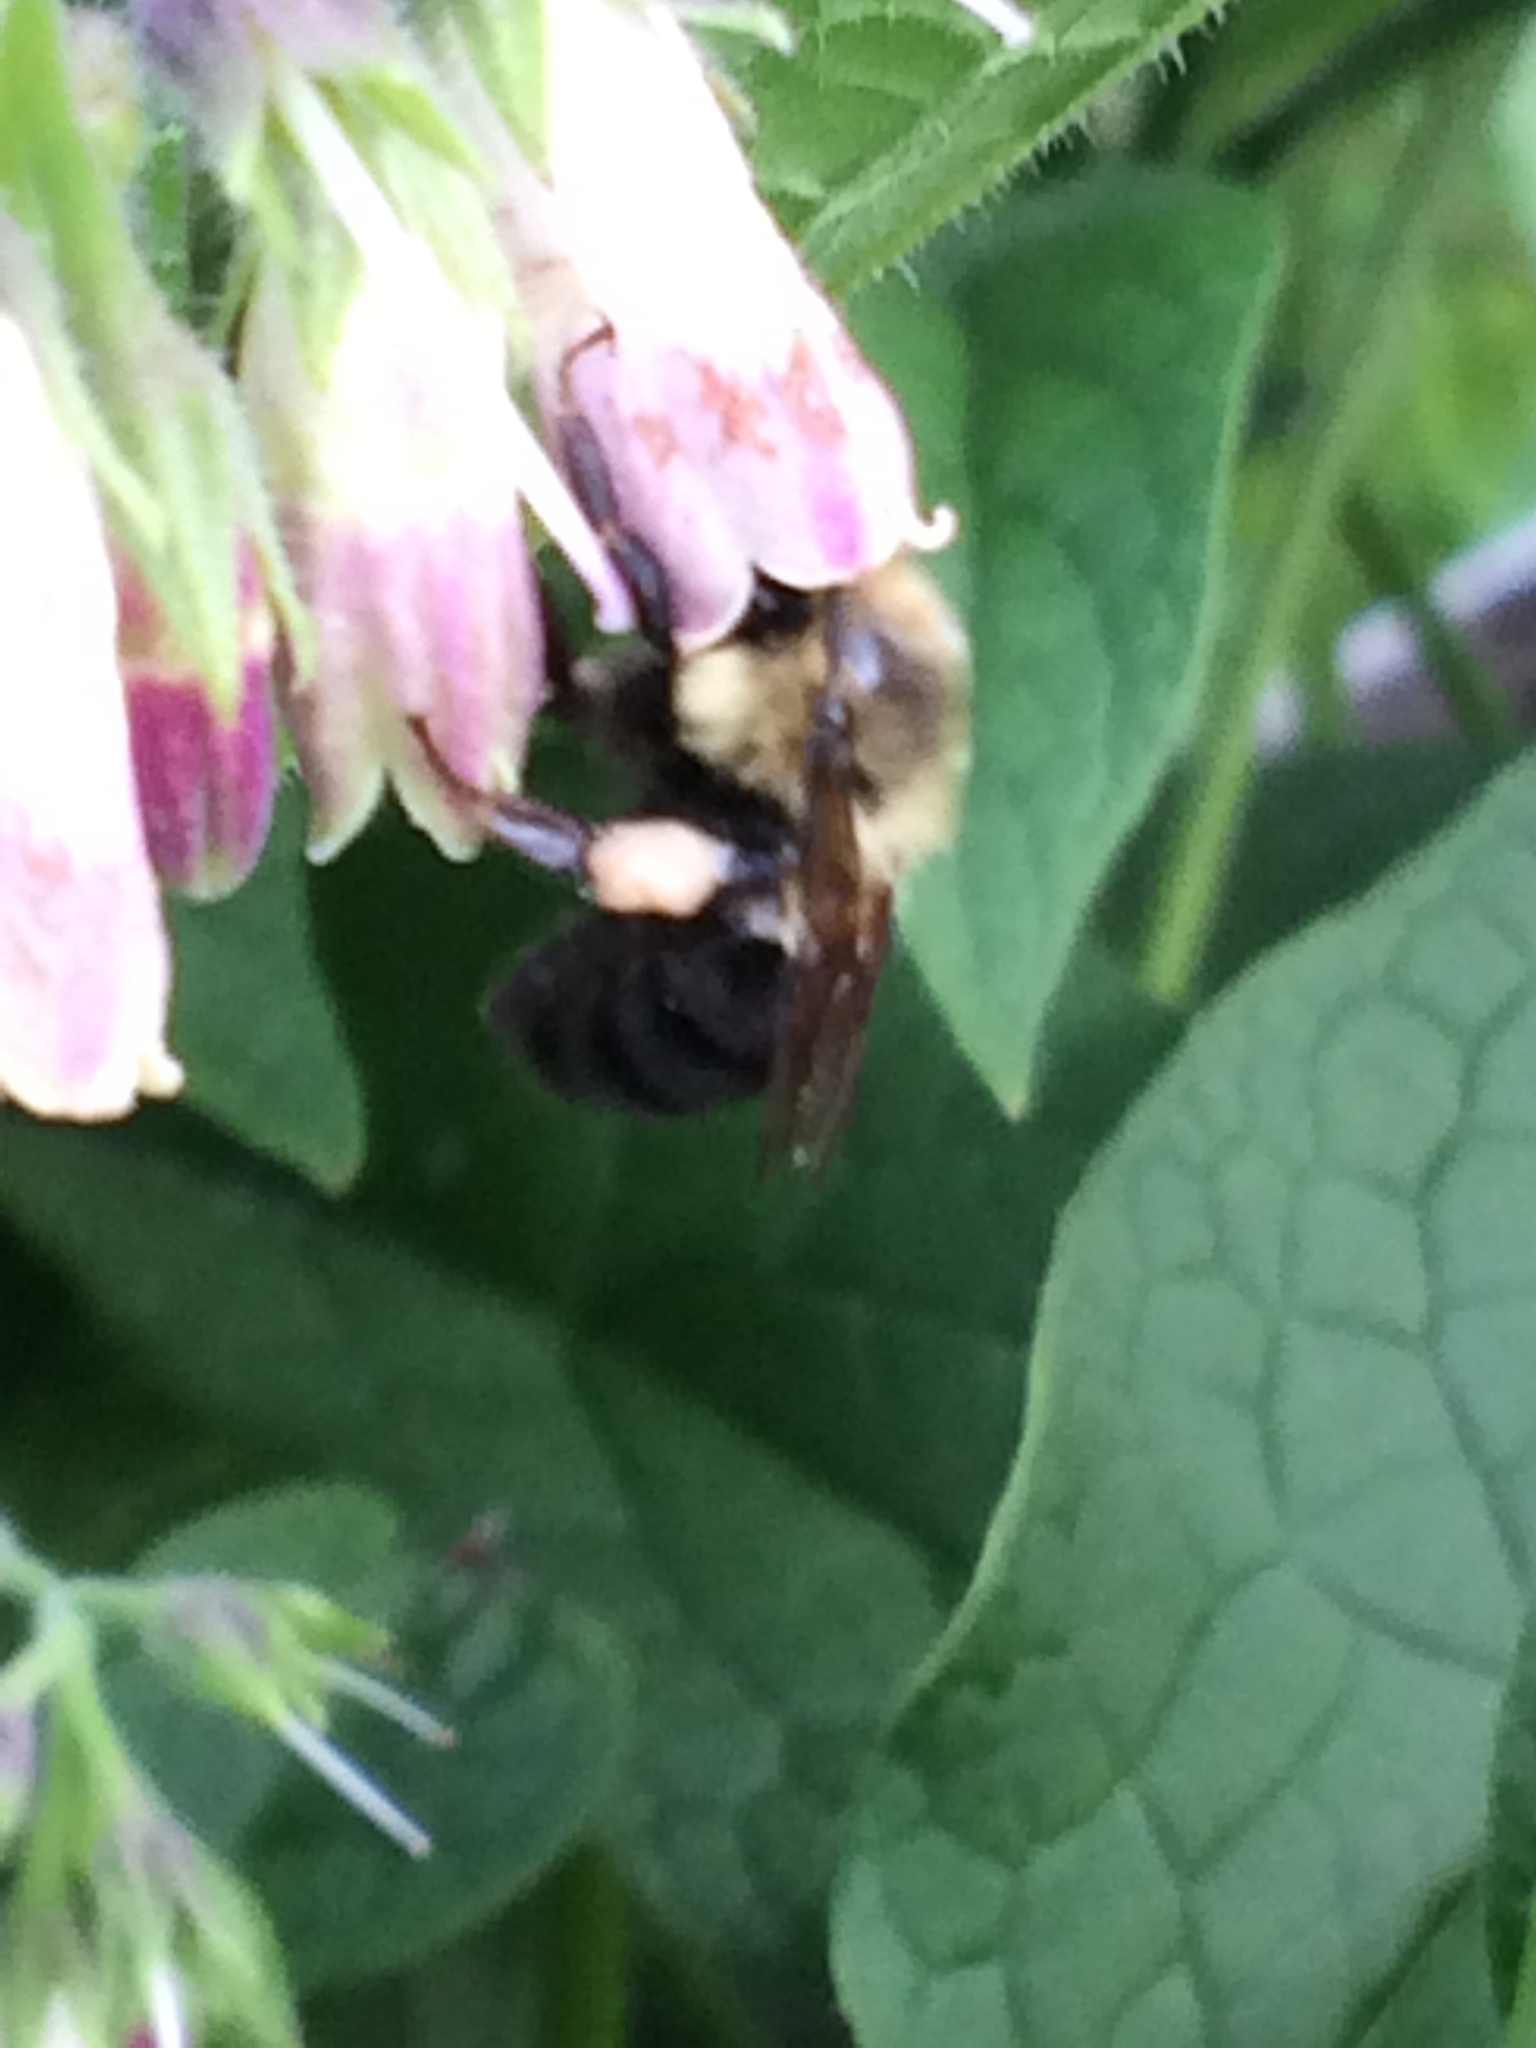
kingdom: Animalia
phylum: Arthropoda
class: Insecta
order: Hymenoptera
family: Apidae
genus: Bombus
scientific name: Bombus impatiens
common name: Common eastern bumble bee
